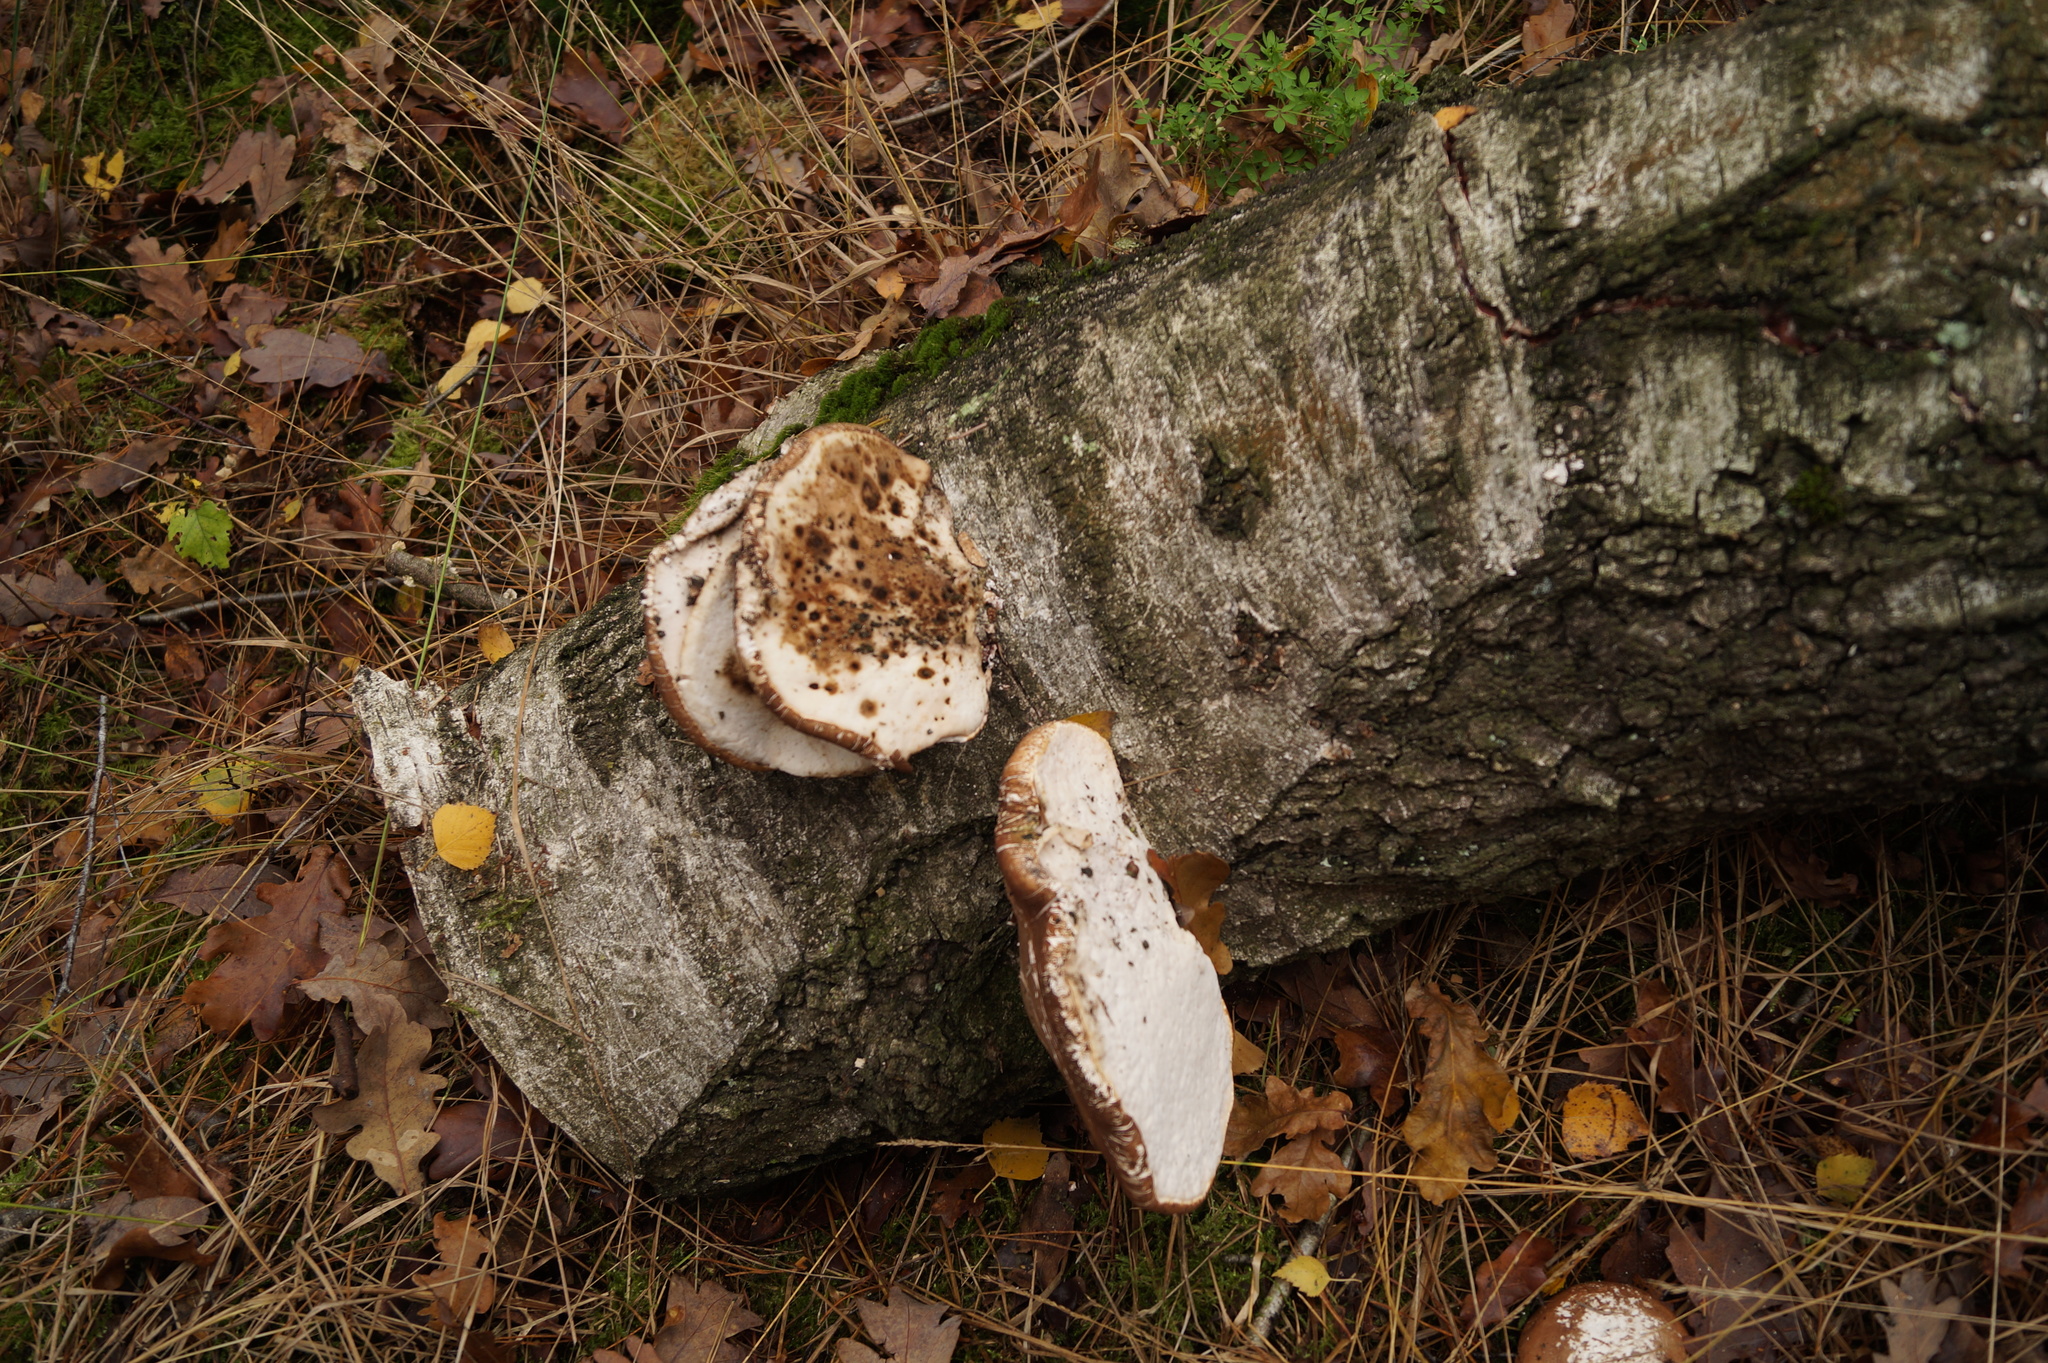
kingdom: Fungi
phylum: Basidiomycota
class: Agaricomycetes
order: Polyporales
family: Fomitopsidaceae
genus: Fomitopsis
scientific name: Fomitopsis betulina
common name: Birch polypore
